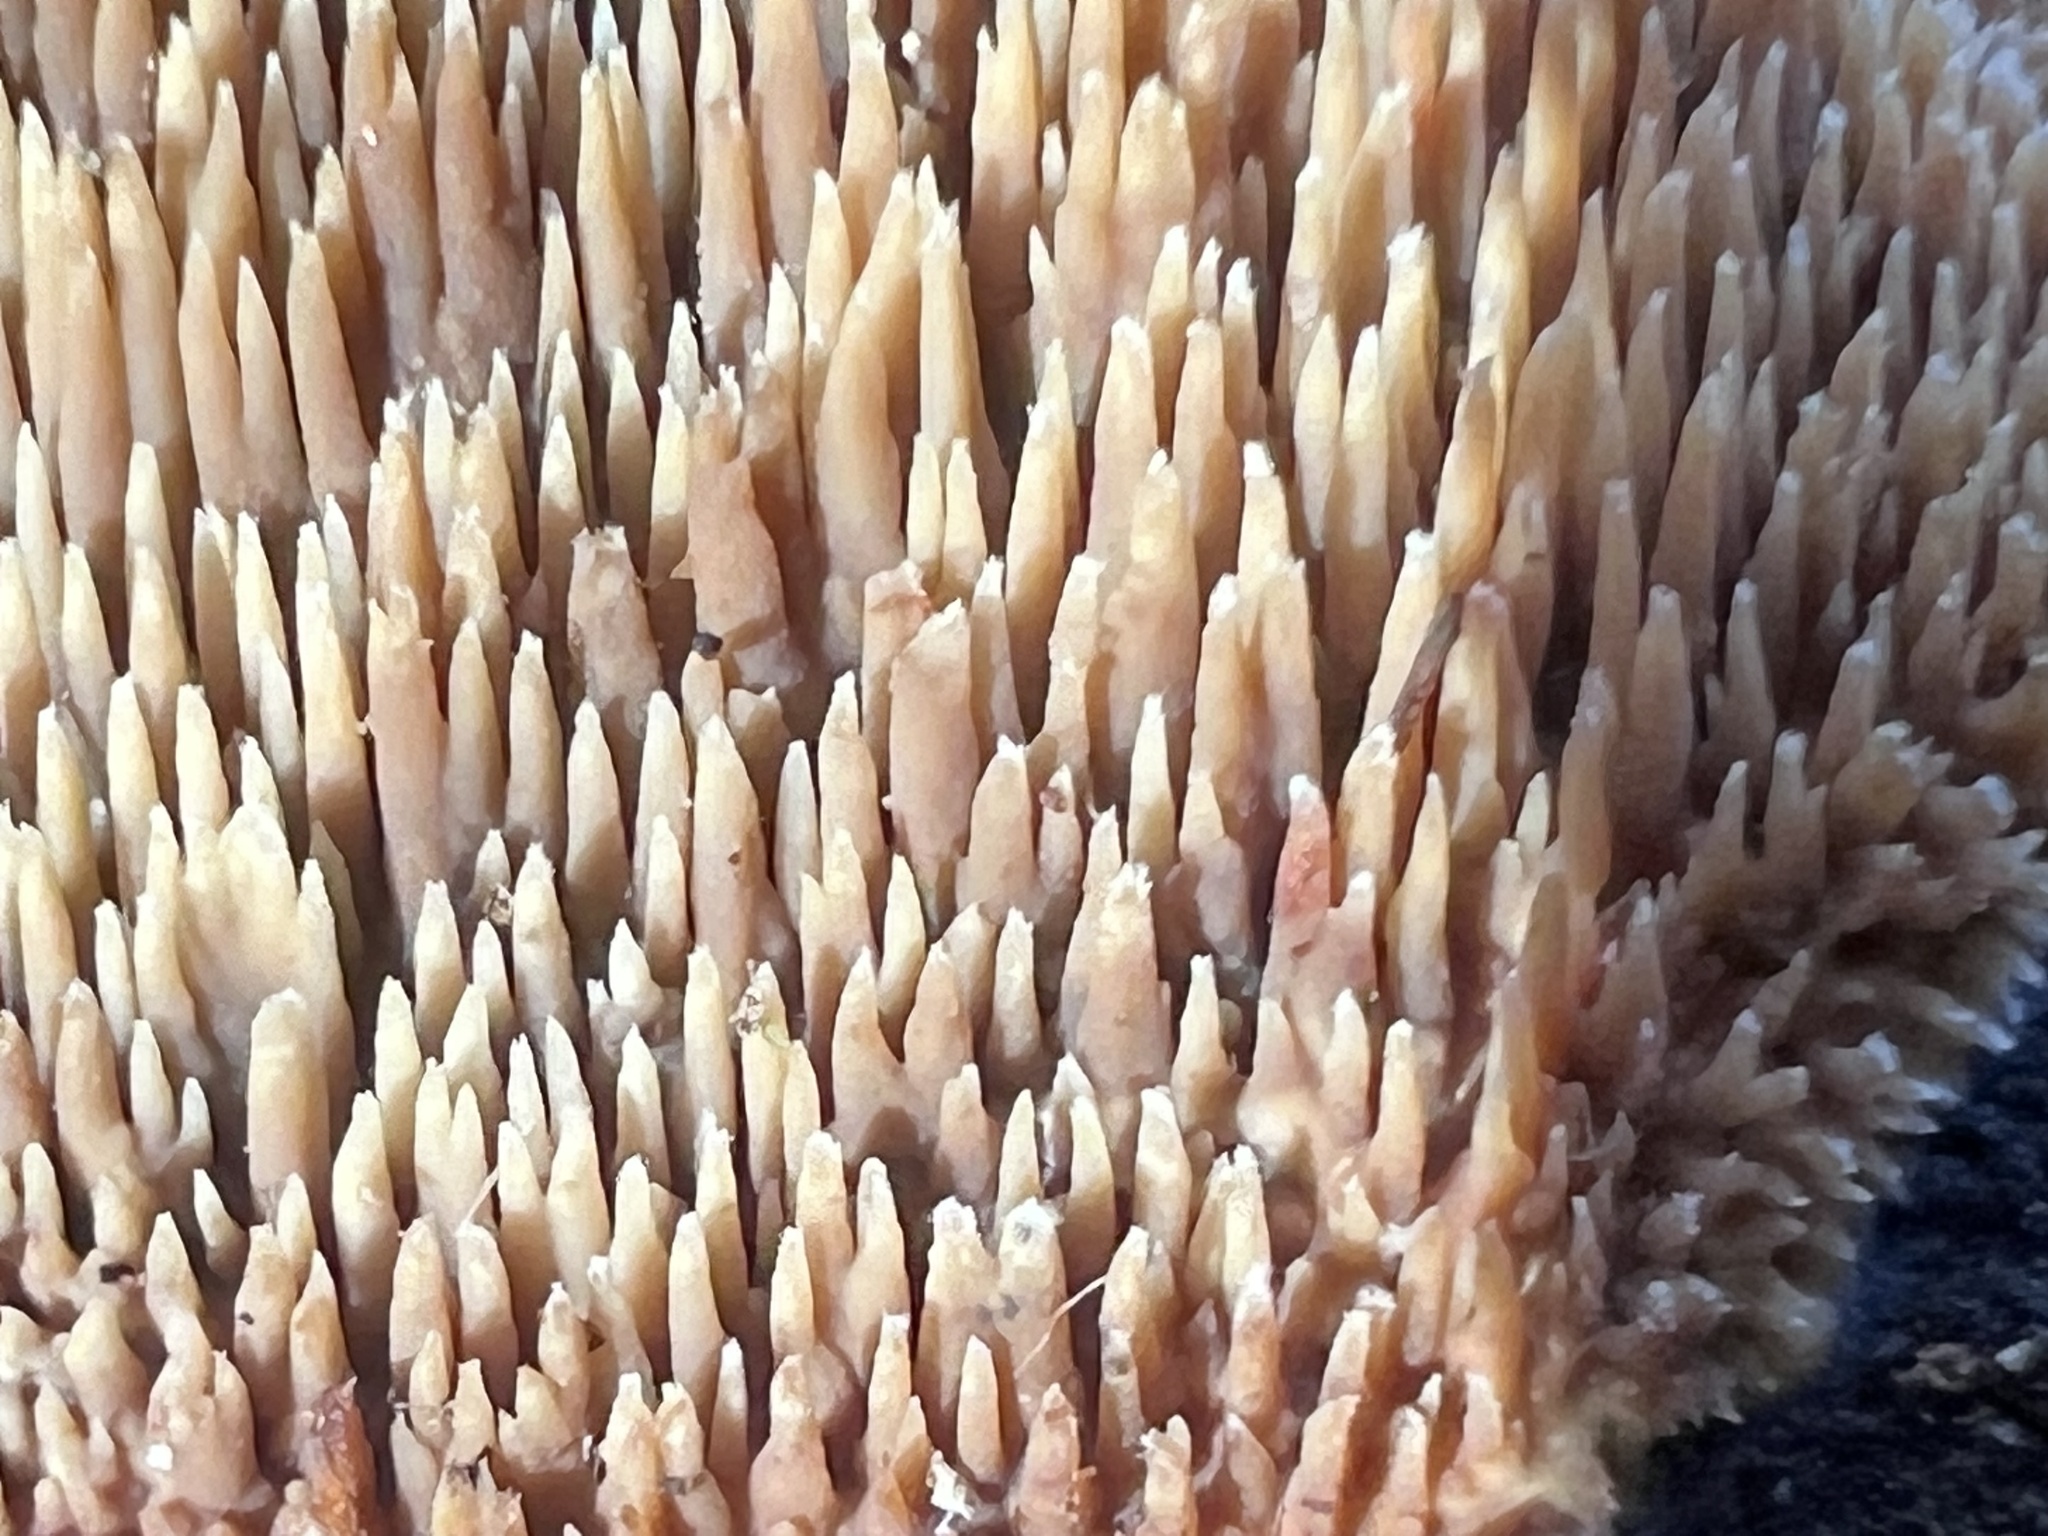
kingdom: Fungi
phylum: Basidiomycota
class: Agaricomycetes
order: Polyporales
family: Steccherinaceae
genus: Steccherinum
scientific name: Steccherinum ochraceum
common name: Ochre spreading tooth
